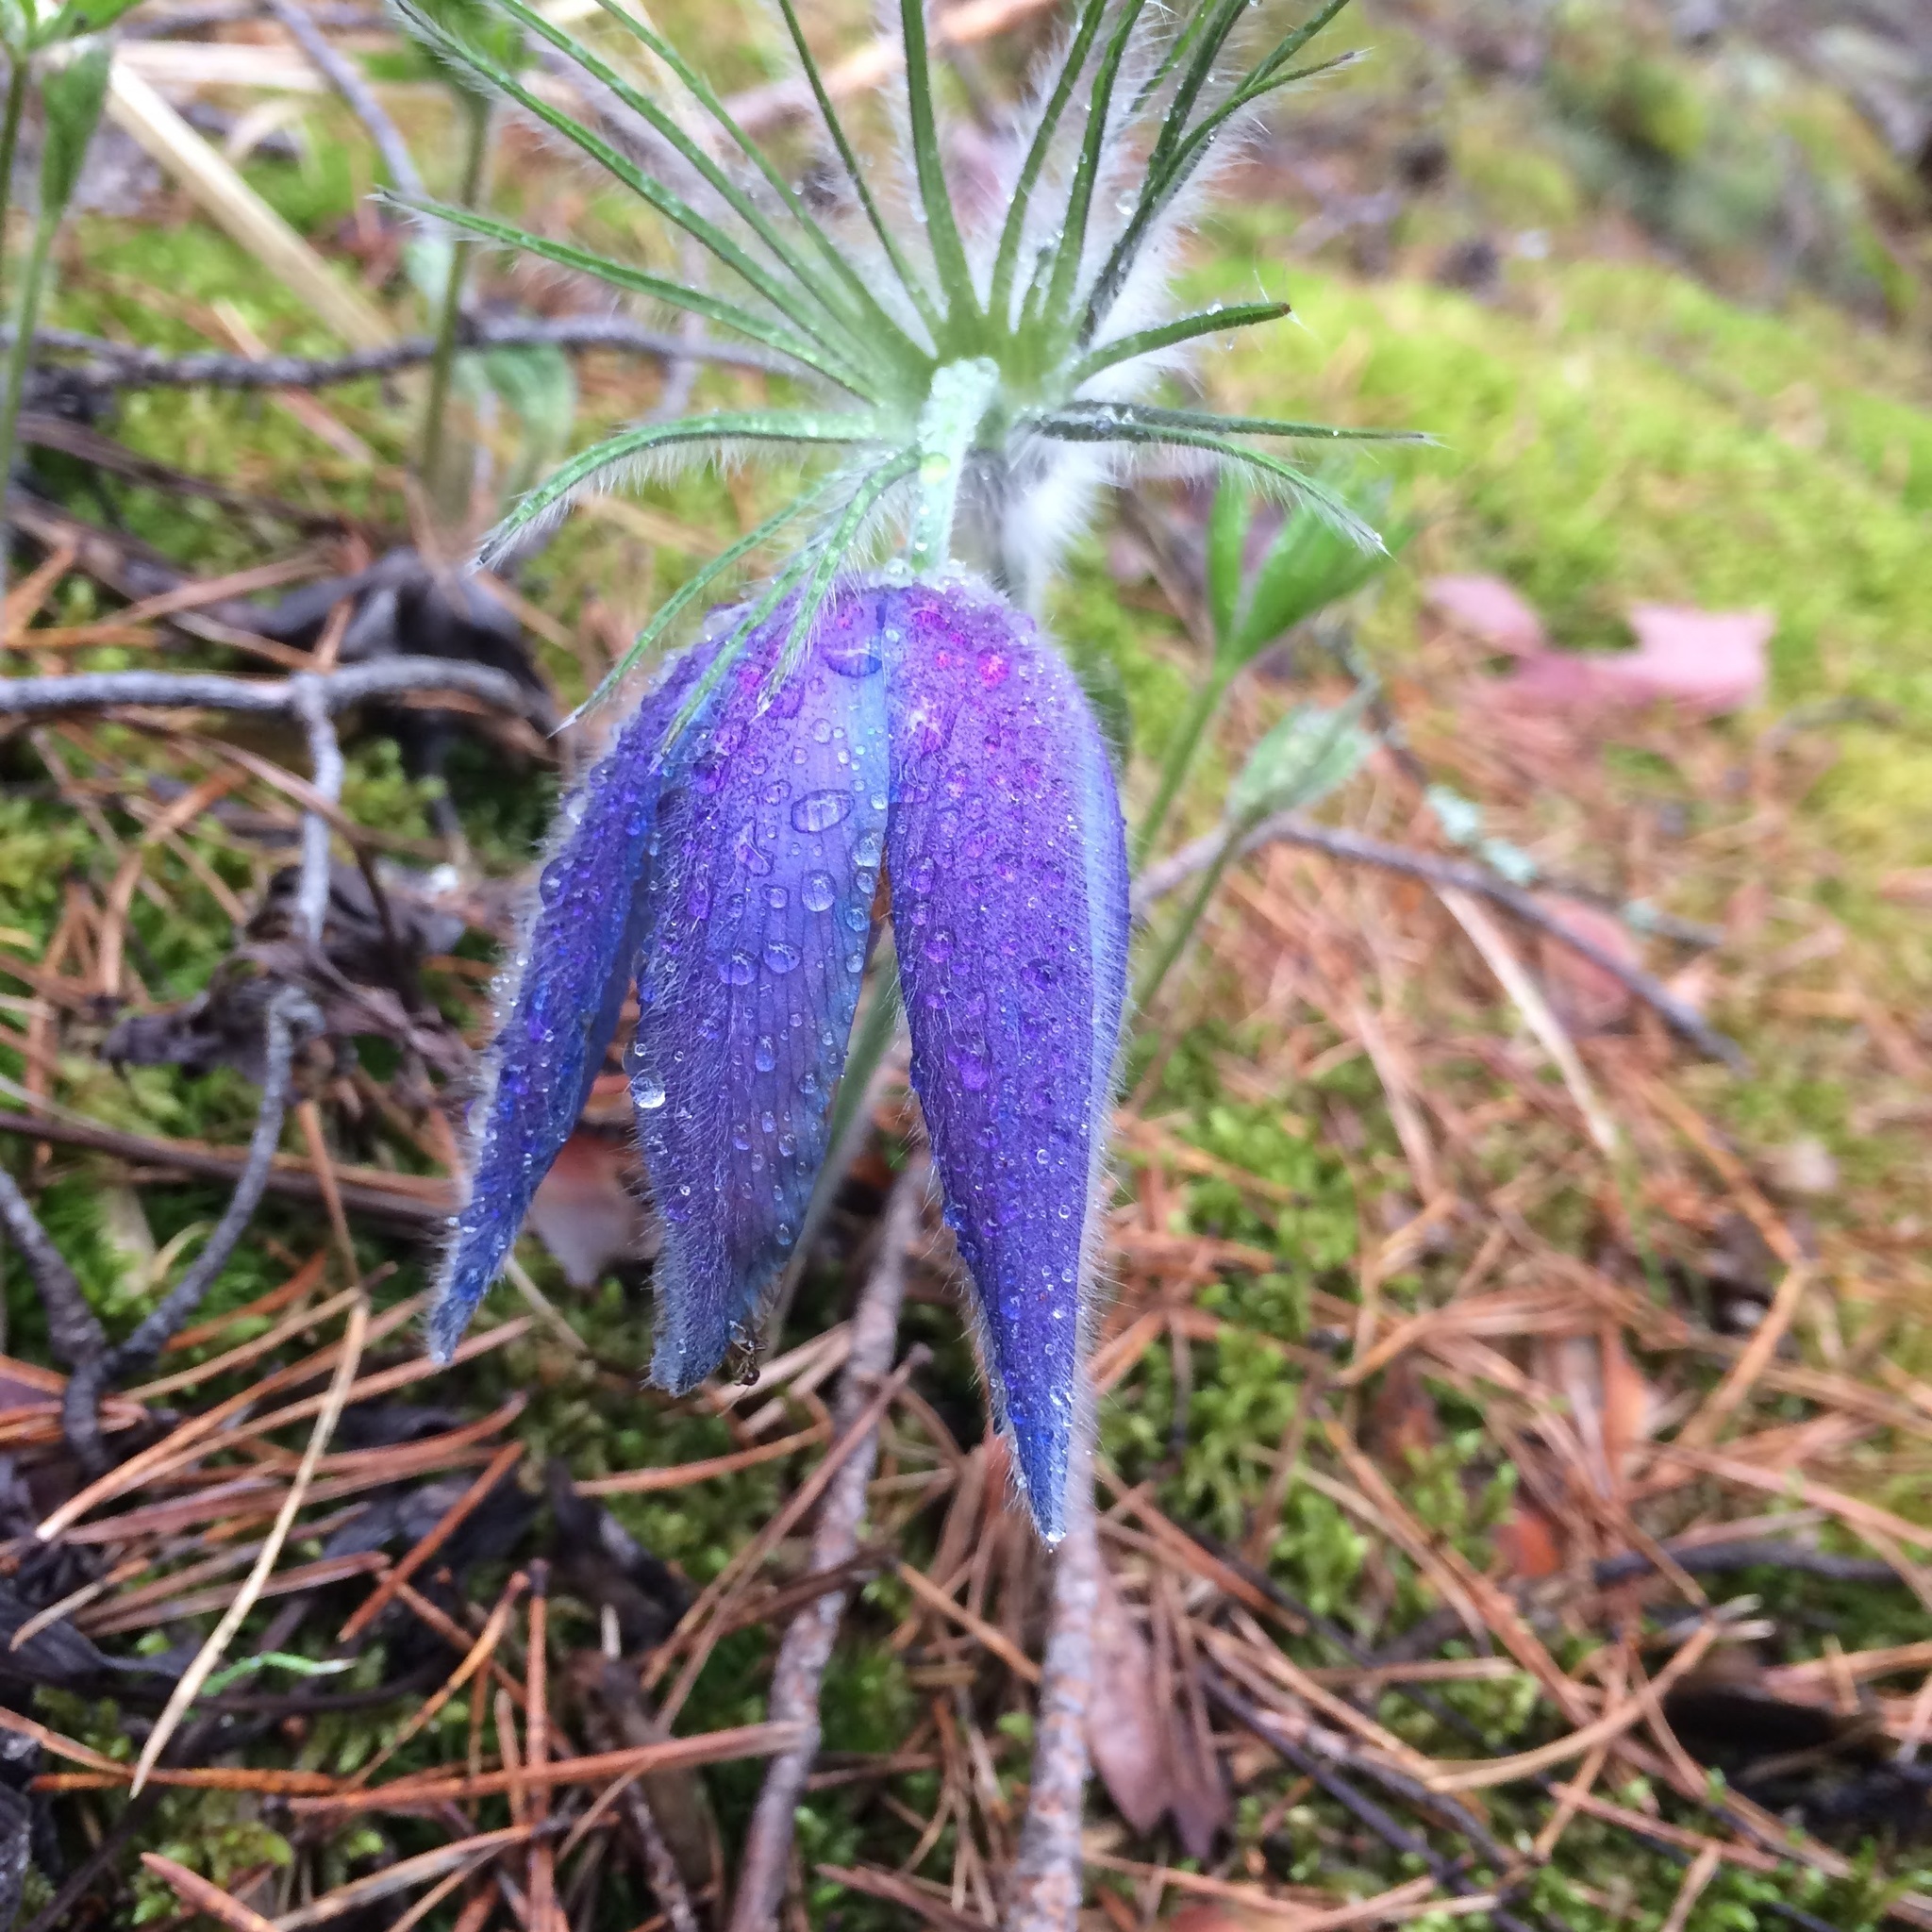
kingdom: Plantae
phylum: Tracheophyta
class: Magnoliopsida
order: Ranunculales
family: Ranunculaceae
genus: Pulsatilla
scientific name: Pulsatilla patens
